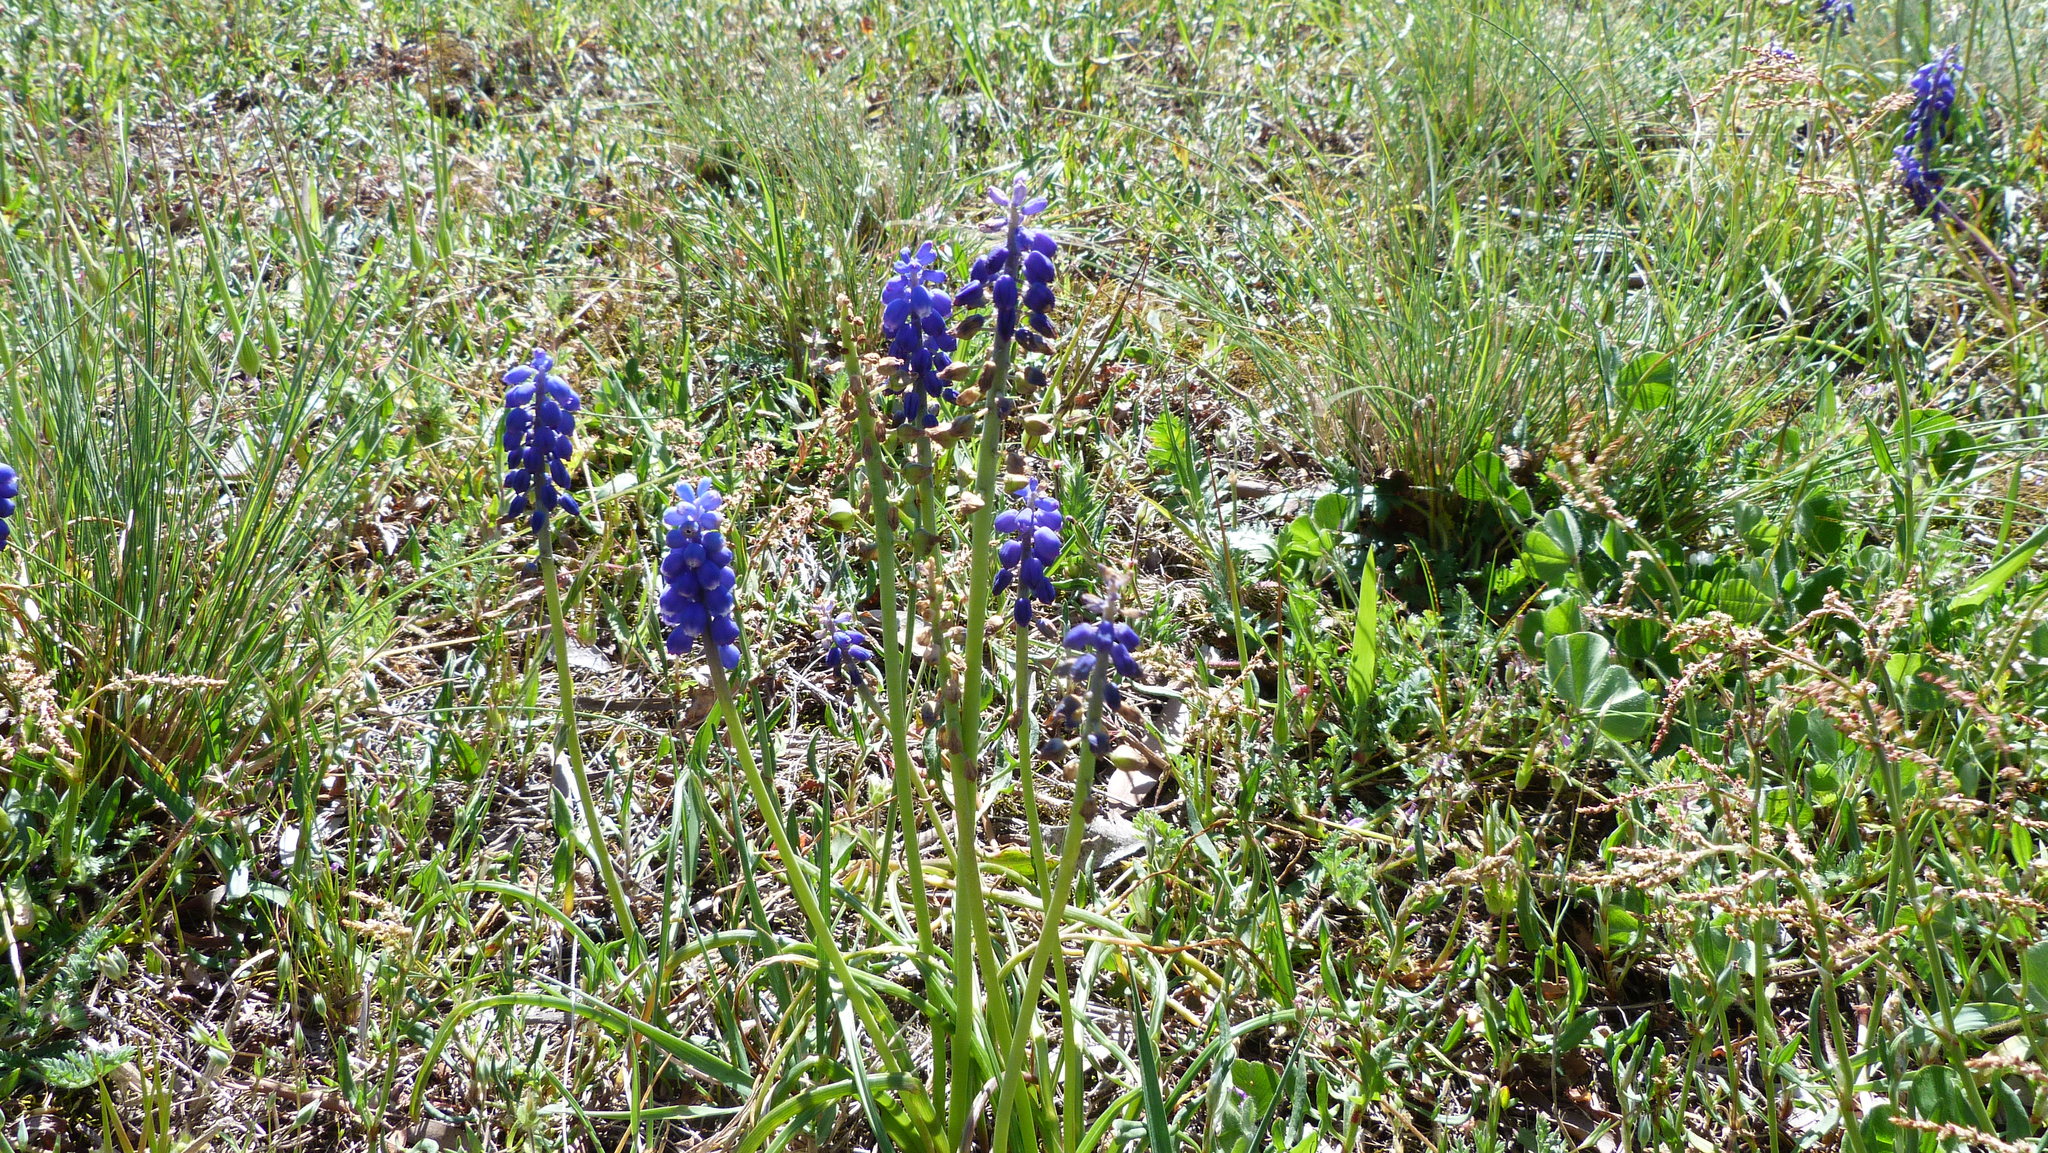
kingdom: Plantae
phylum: Tracheophyta
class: Liliopsida
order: Asparagales
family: Asparagaceae
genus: Muscari
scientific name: Muscari armeniacum
